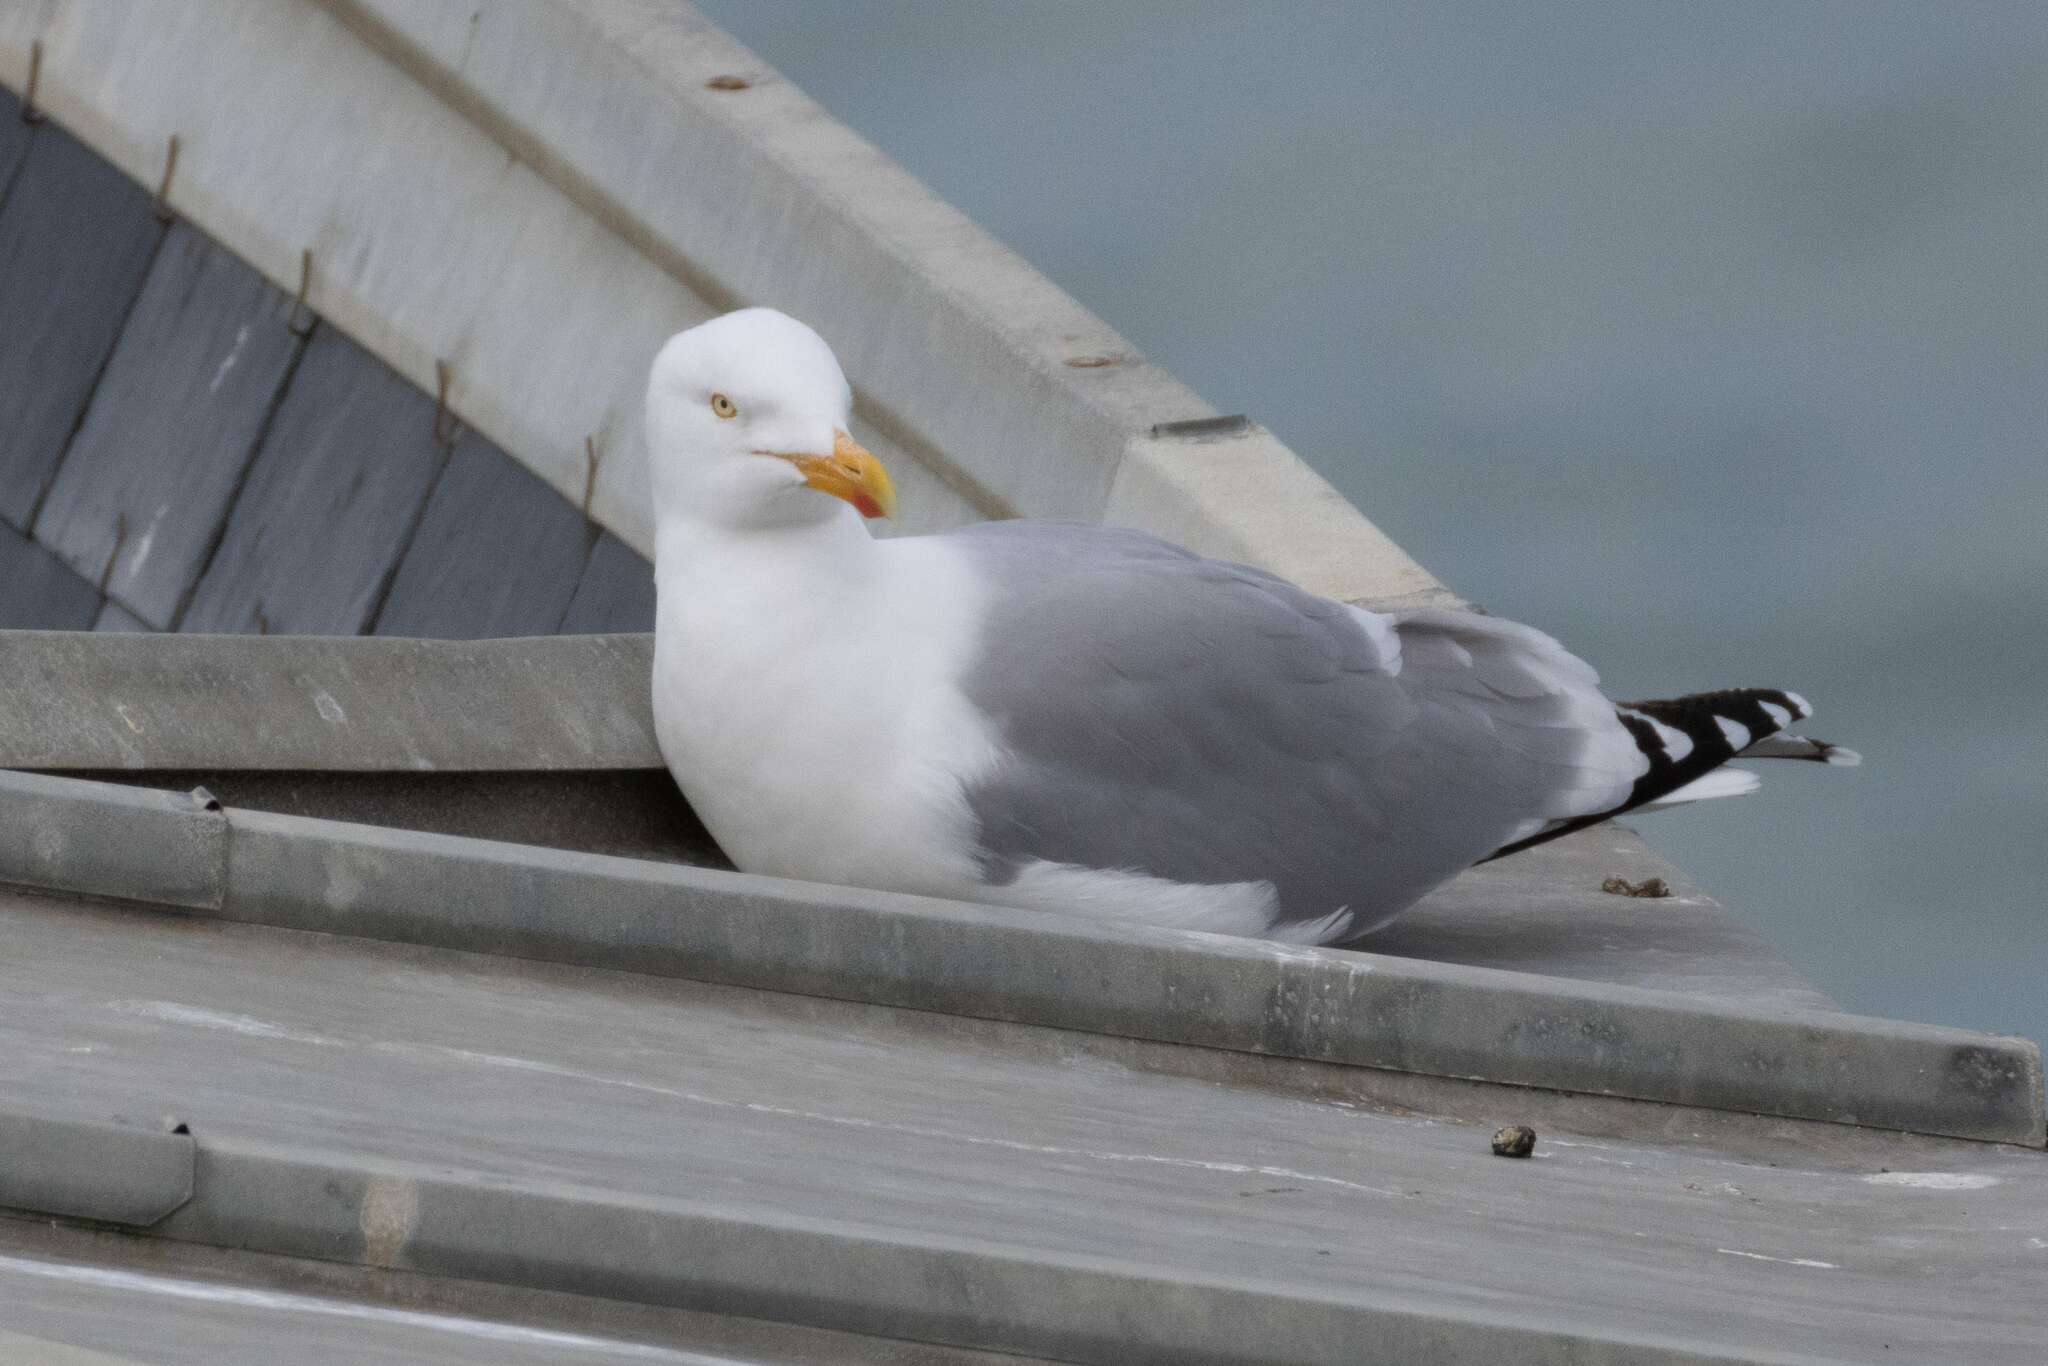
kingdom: Animalia
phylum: Chordata
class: Aves
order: Charadriiformes
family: Laridae
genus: Larus
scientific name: Larus argentatus
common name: Herring gull
